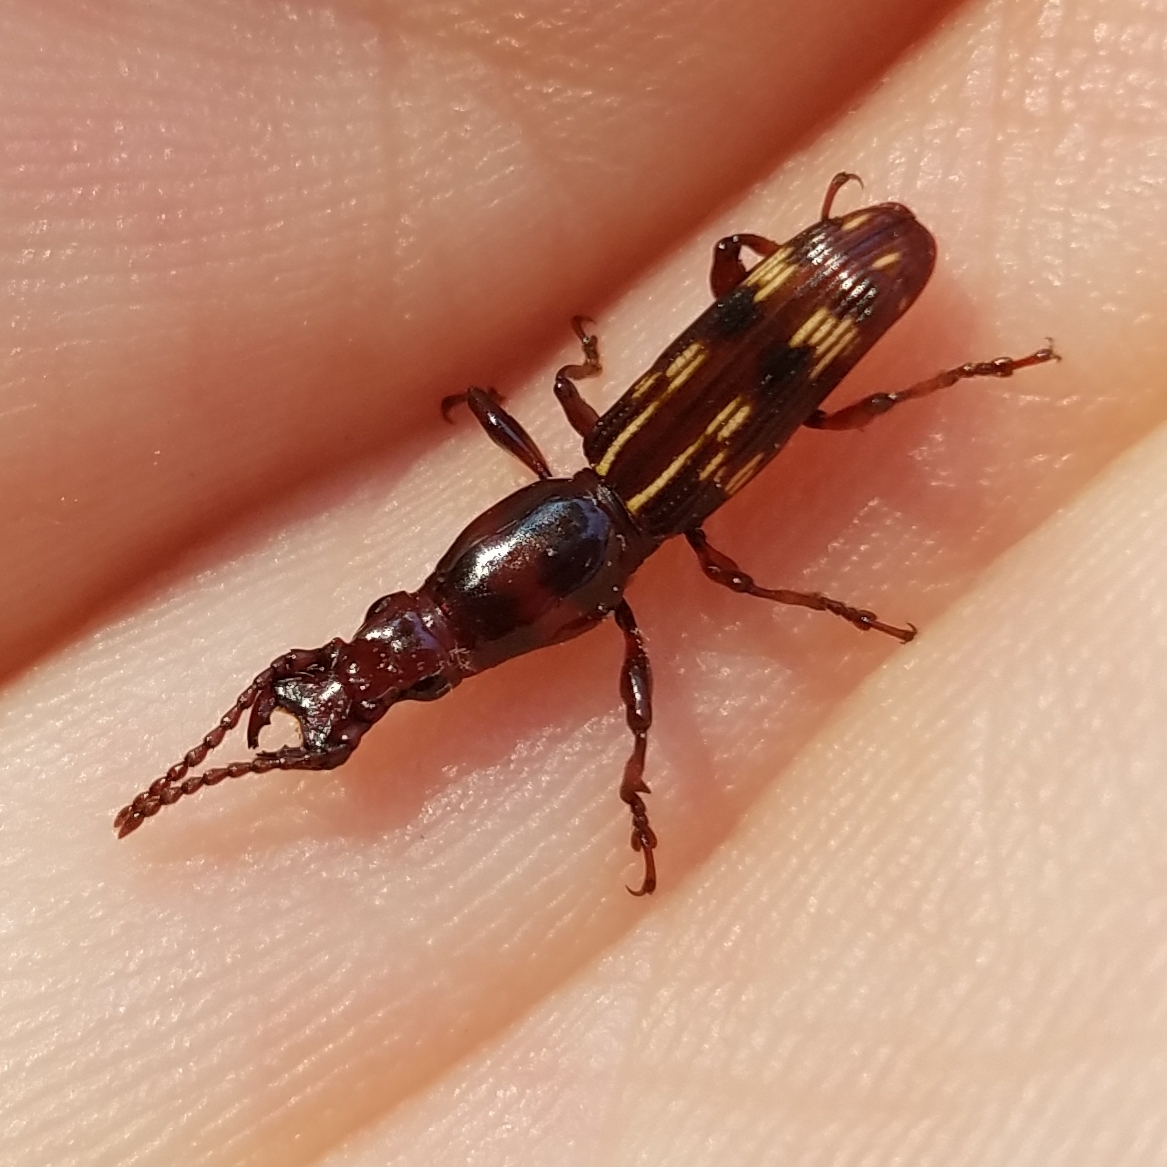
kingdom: Animalia
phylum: Arthropoda
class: Insecta
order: Coleoptera
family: Brentidae
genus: Arrenodes
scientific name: Arrenodes minutus
